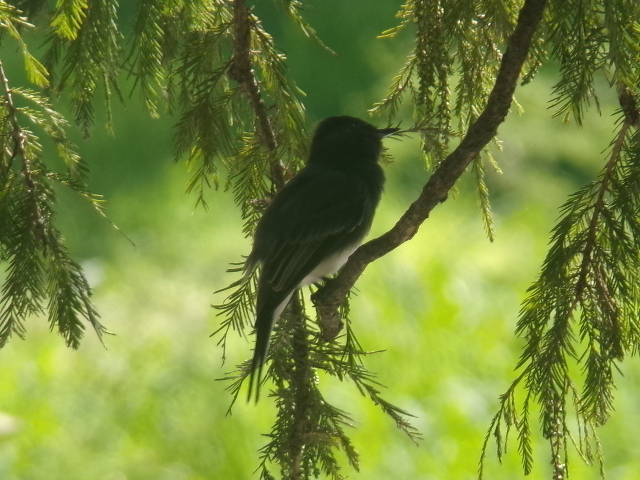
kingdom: Animalia
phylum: Chordata
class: Aves
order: Passeriformes
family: Tyrannidae
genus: Sayornis
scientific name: Sayornis nigricans
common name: Black phoebe
